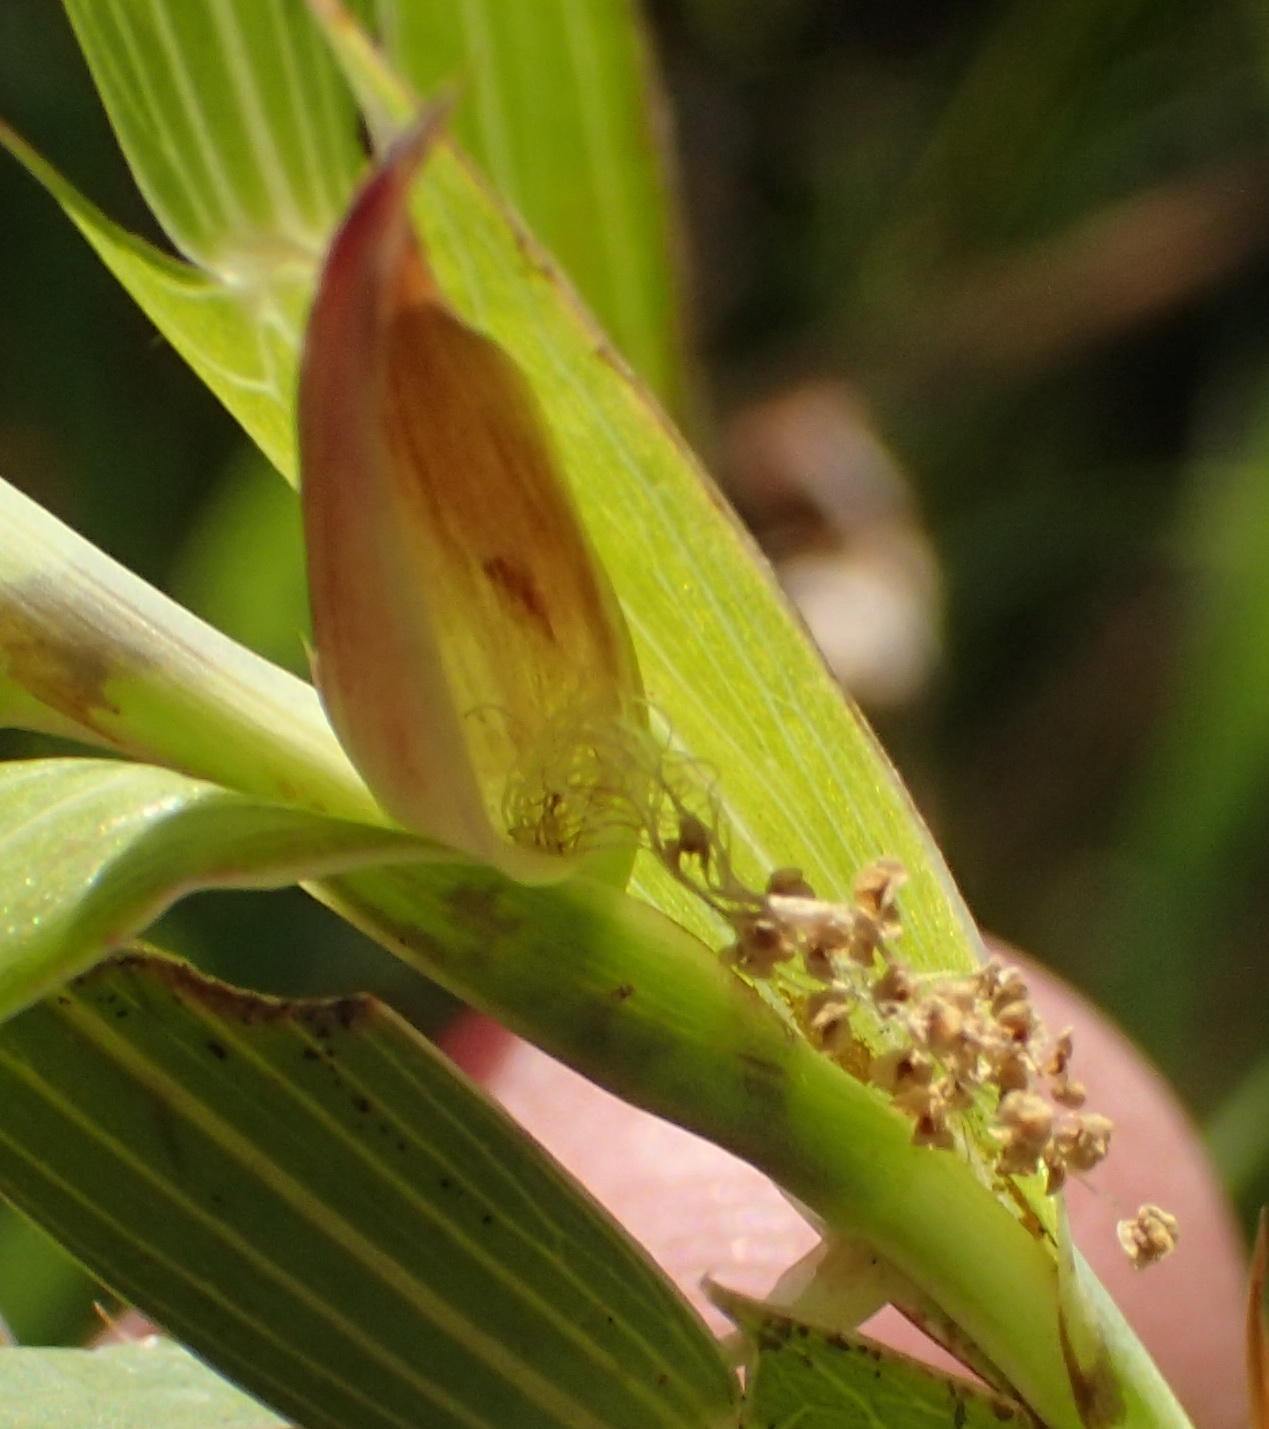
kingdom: Plantae
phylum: Tracheophyta
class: Magnoliopsida
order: Rosales
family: Rosaceae
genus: Cliffortia
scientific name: Cliffortia graminea
